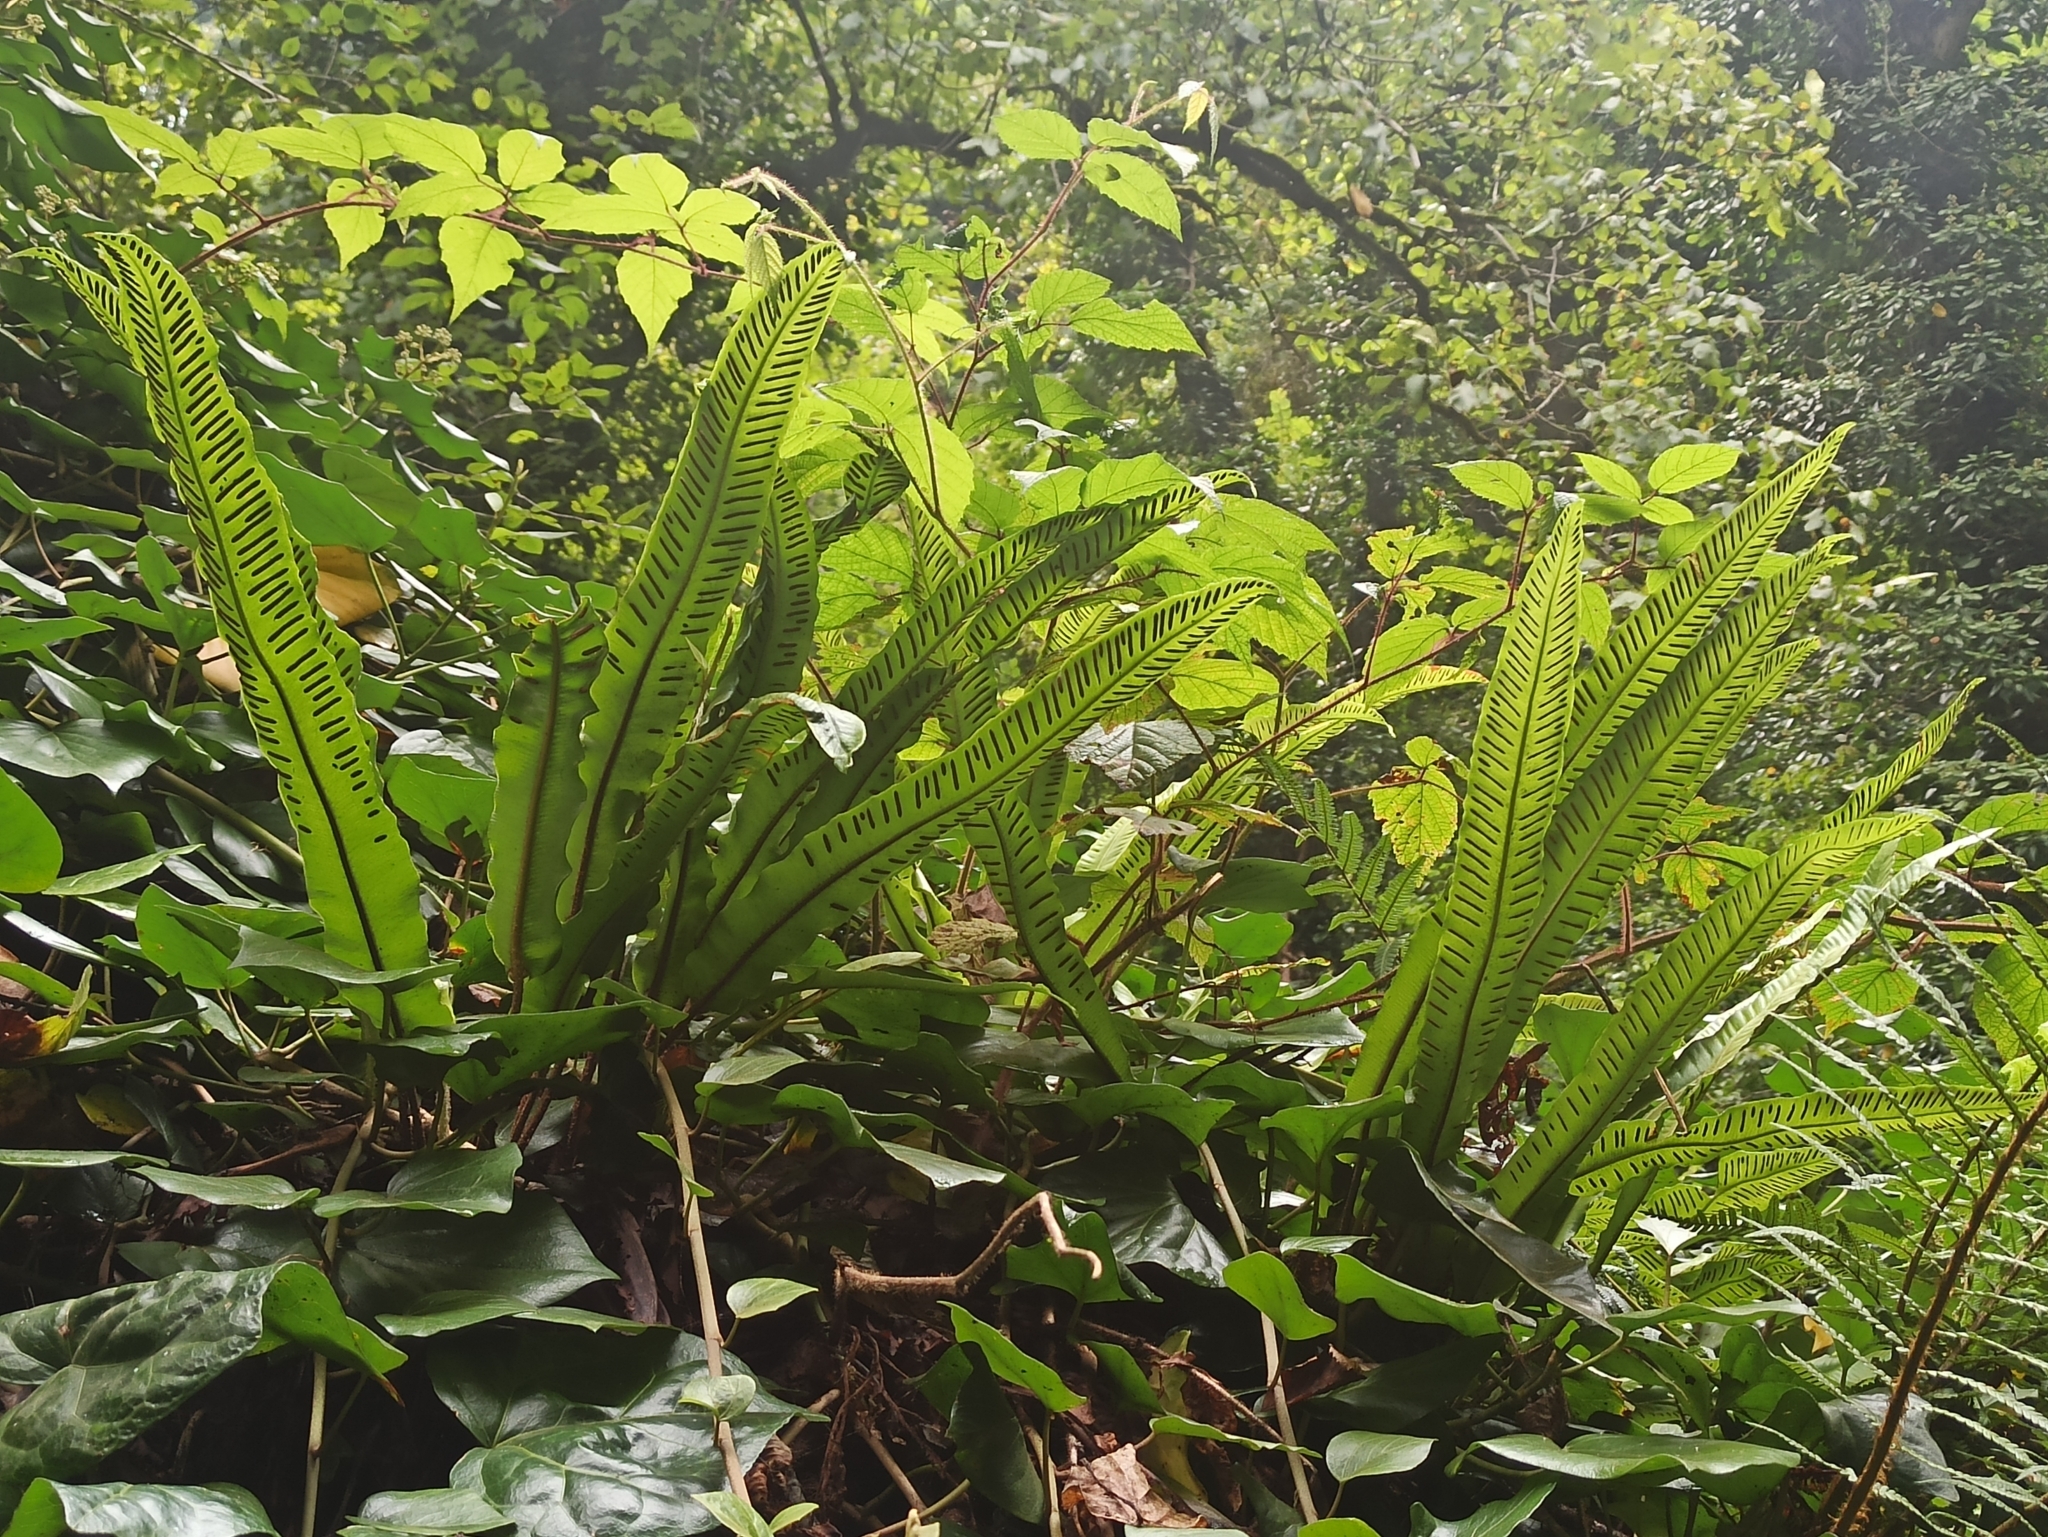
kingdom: Plantae
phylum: Tracheophyta
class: Polypodiopsida
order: Polypodiales
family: Aspleniaceae
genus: Asplenium
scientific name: Asplenium scolopendrium
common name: Hart's-tongue fern
